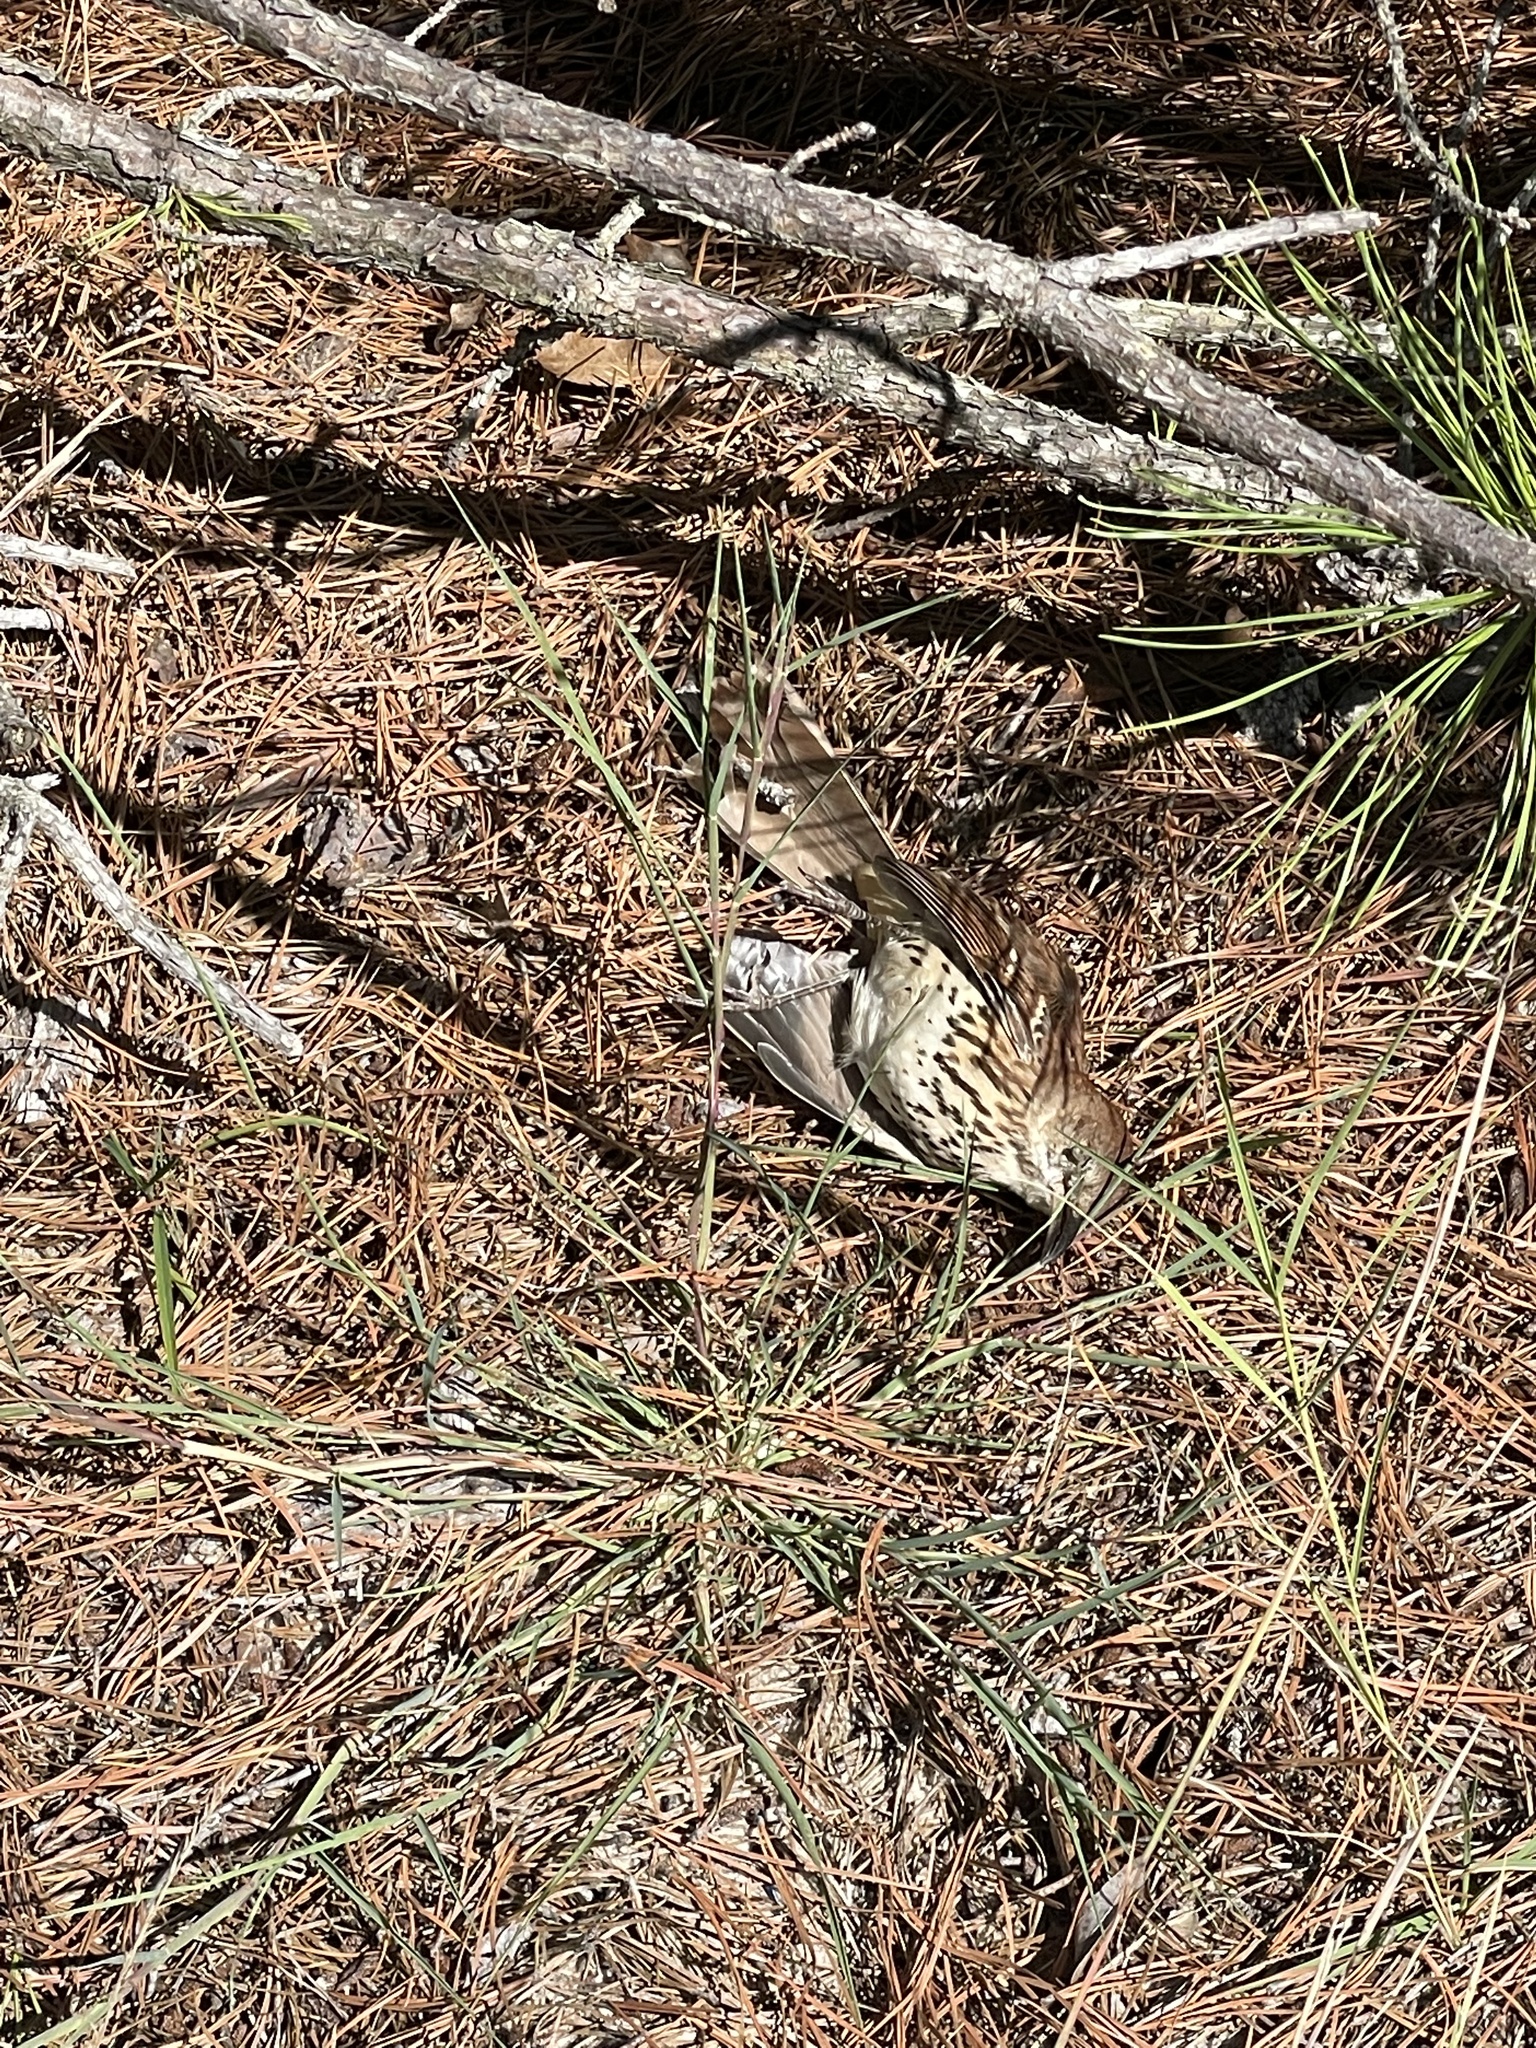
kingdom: Animalia
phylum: Chordata
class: Aves
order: Passeriformes
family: Mimidae
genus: Toxostoma
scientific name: Toxostoma rufum
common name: Brown thrasher
